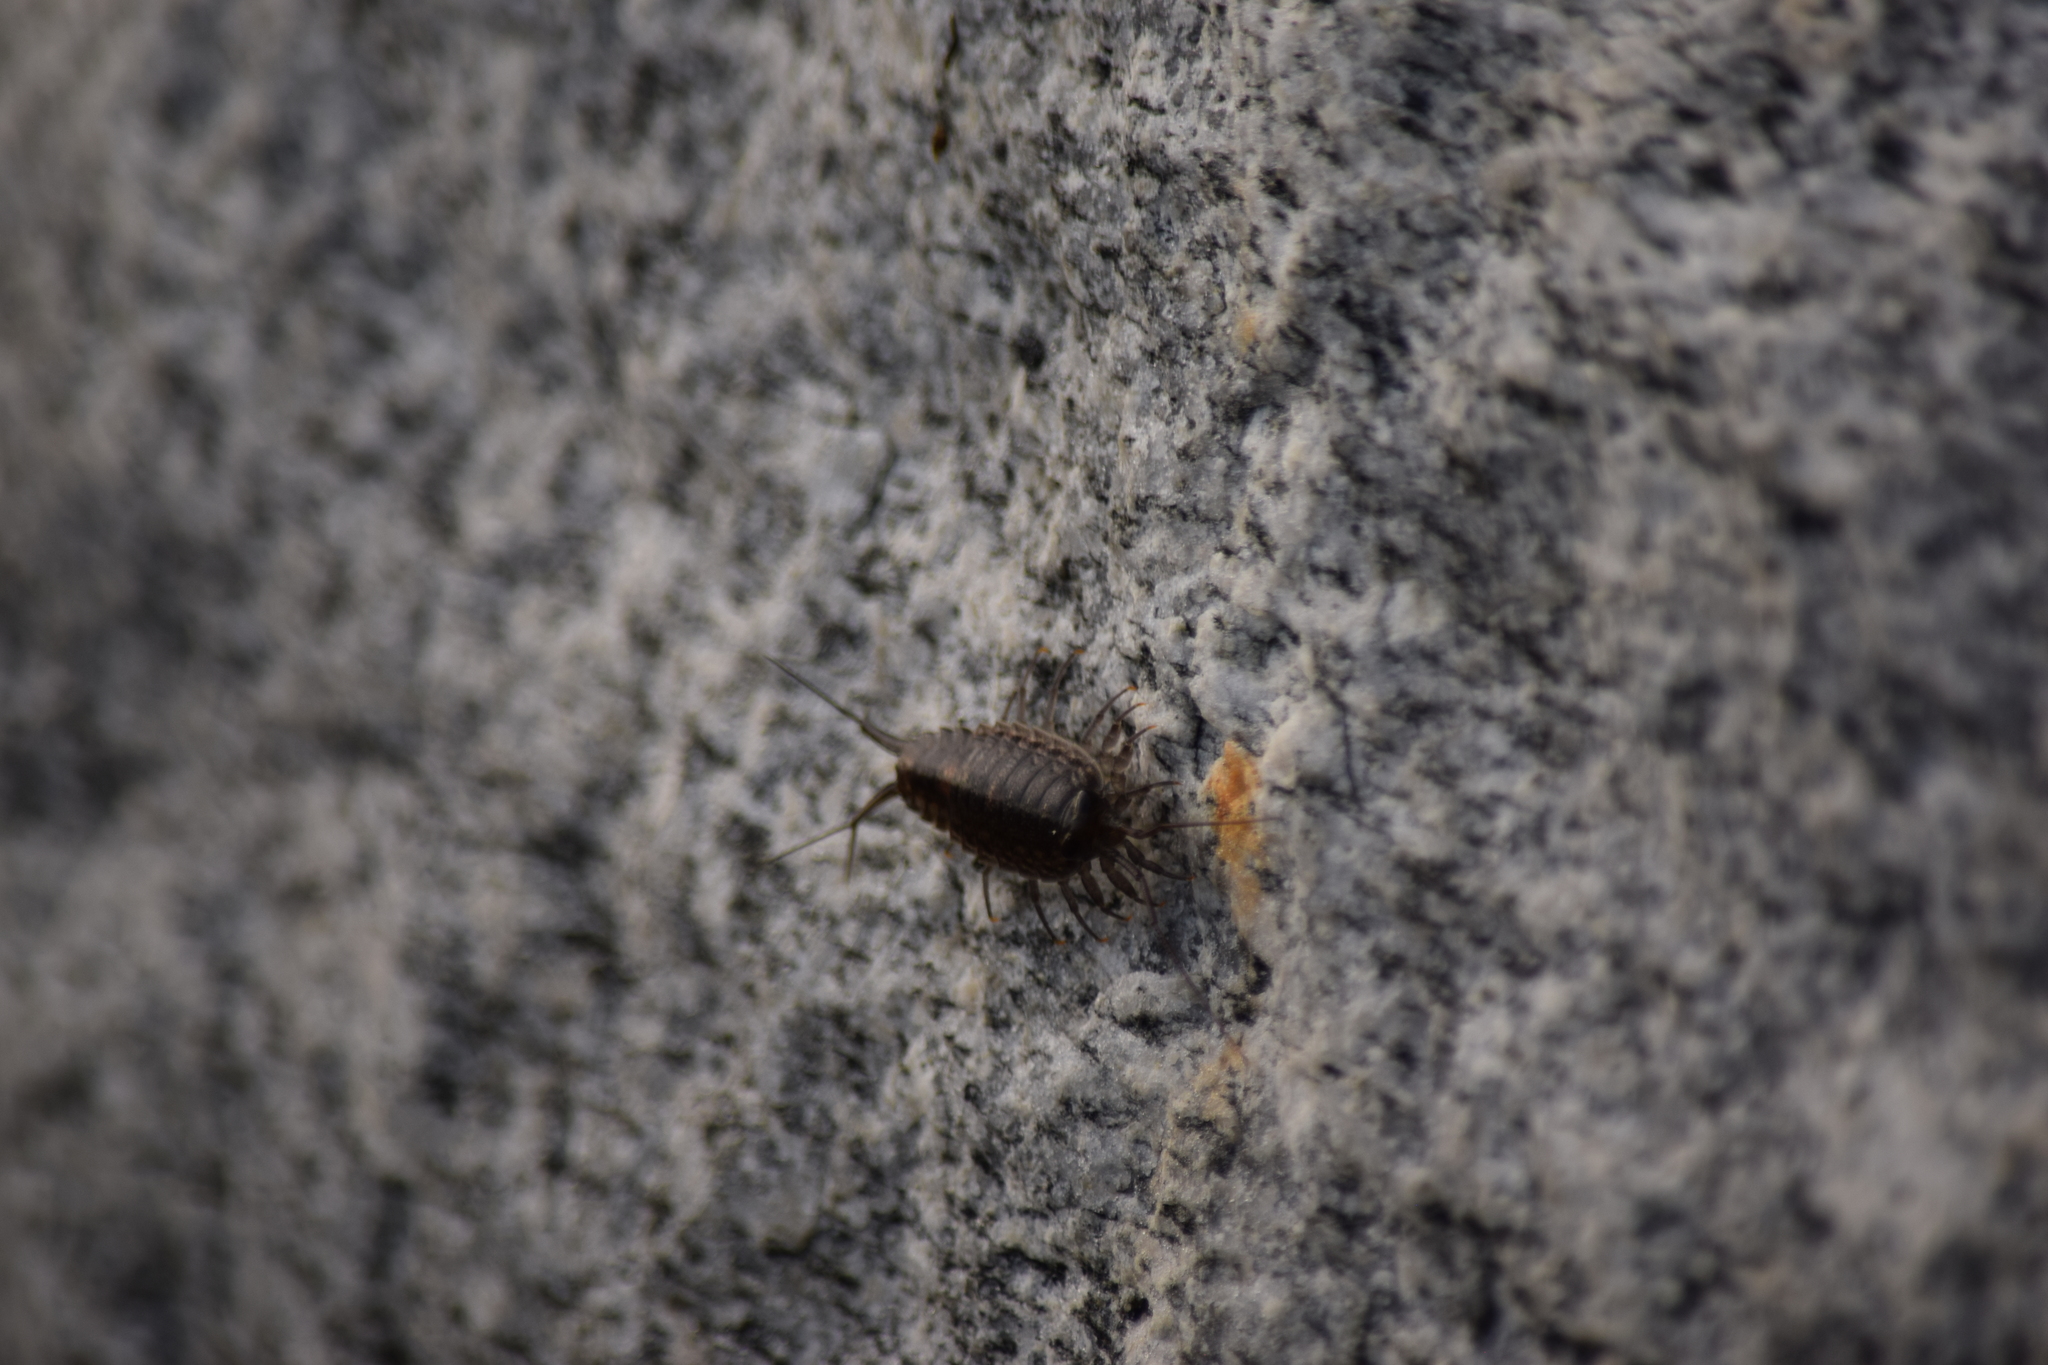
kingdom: Animalia
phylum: Arthropoda
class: Malacostraca
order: Isopoda
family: Ligiidae
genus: Ligia
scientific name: Ligia exotica
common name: Wharf roach
